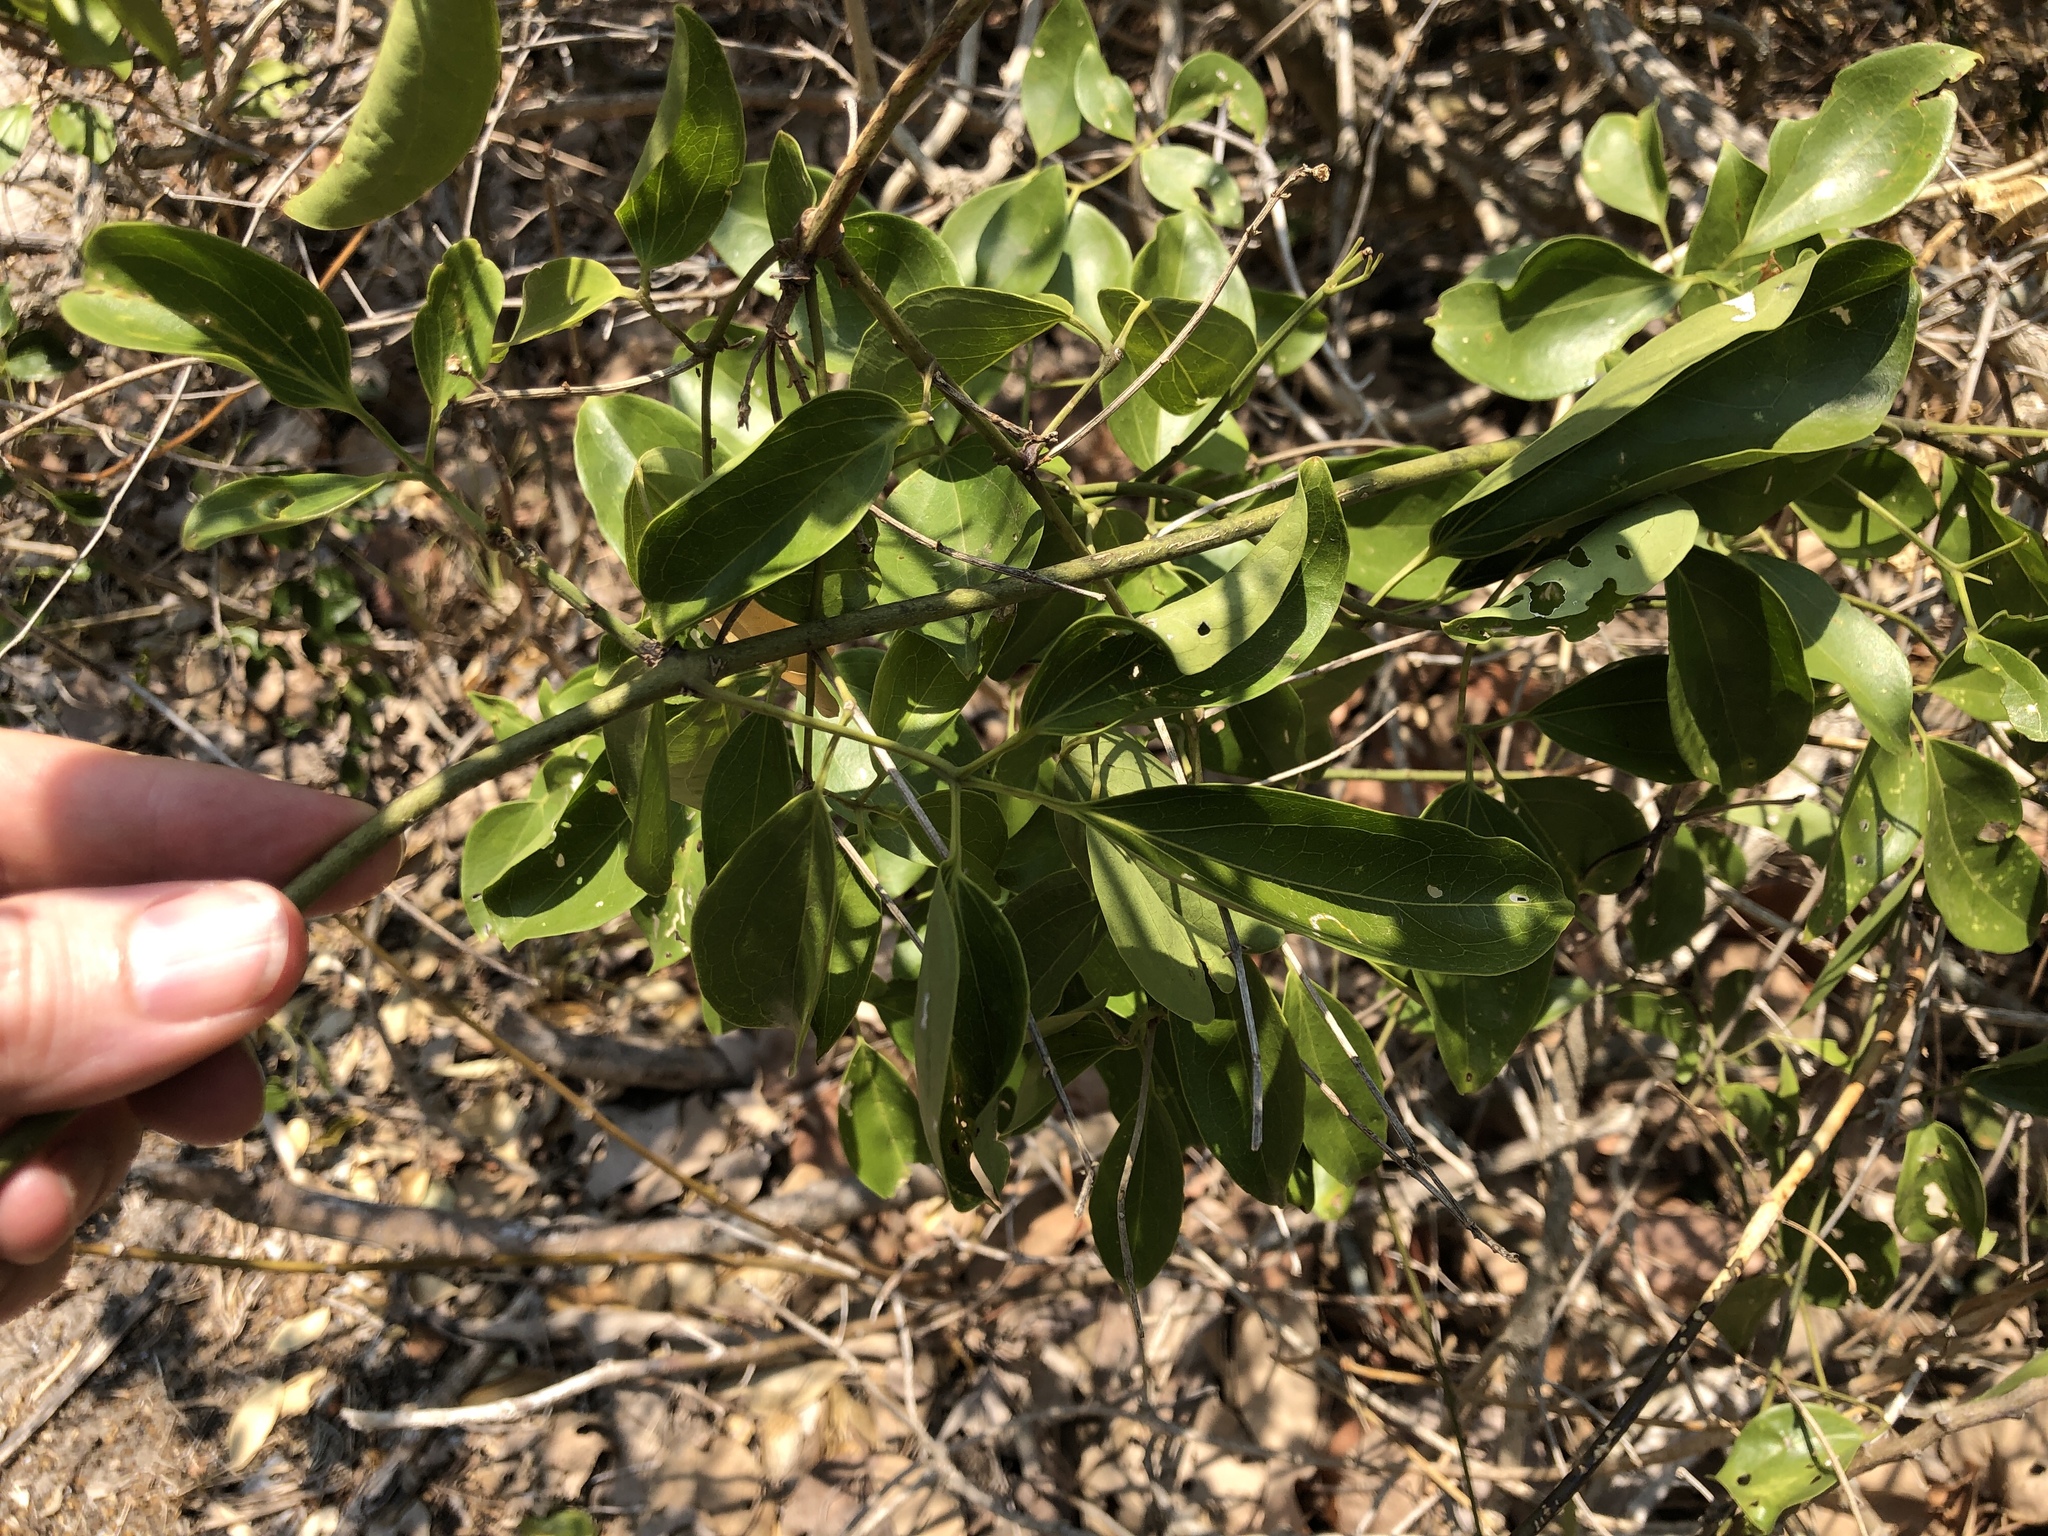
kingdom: Plantae
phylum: Tracheophyta
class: Magnoliopsida
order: Lamiales
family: Oleaceae
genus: Jasminum
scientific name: Jasminum didymum
